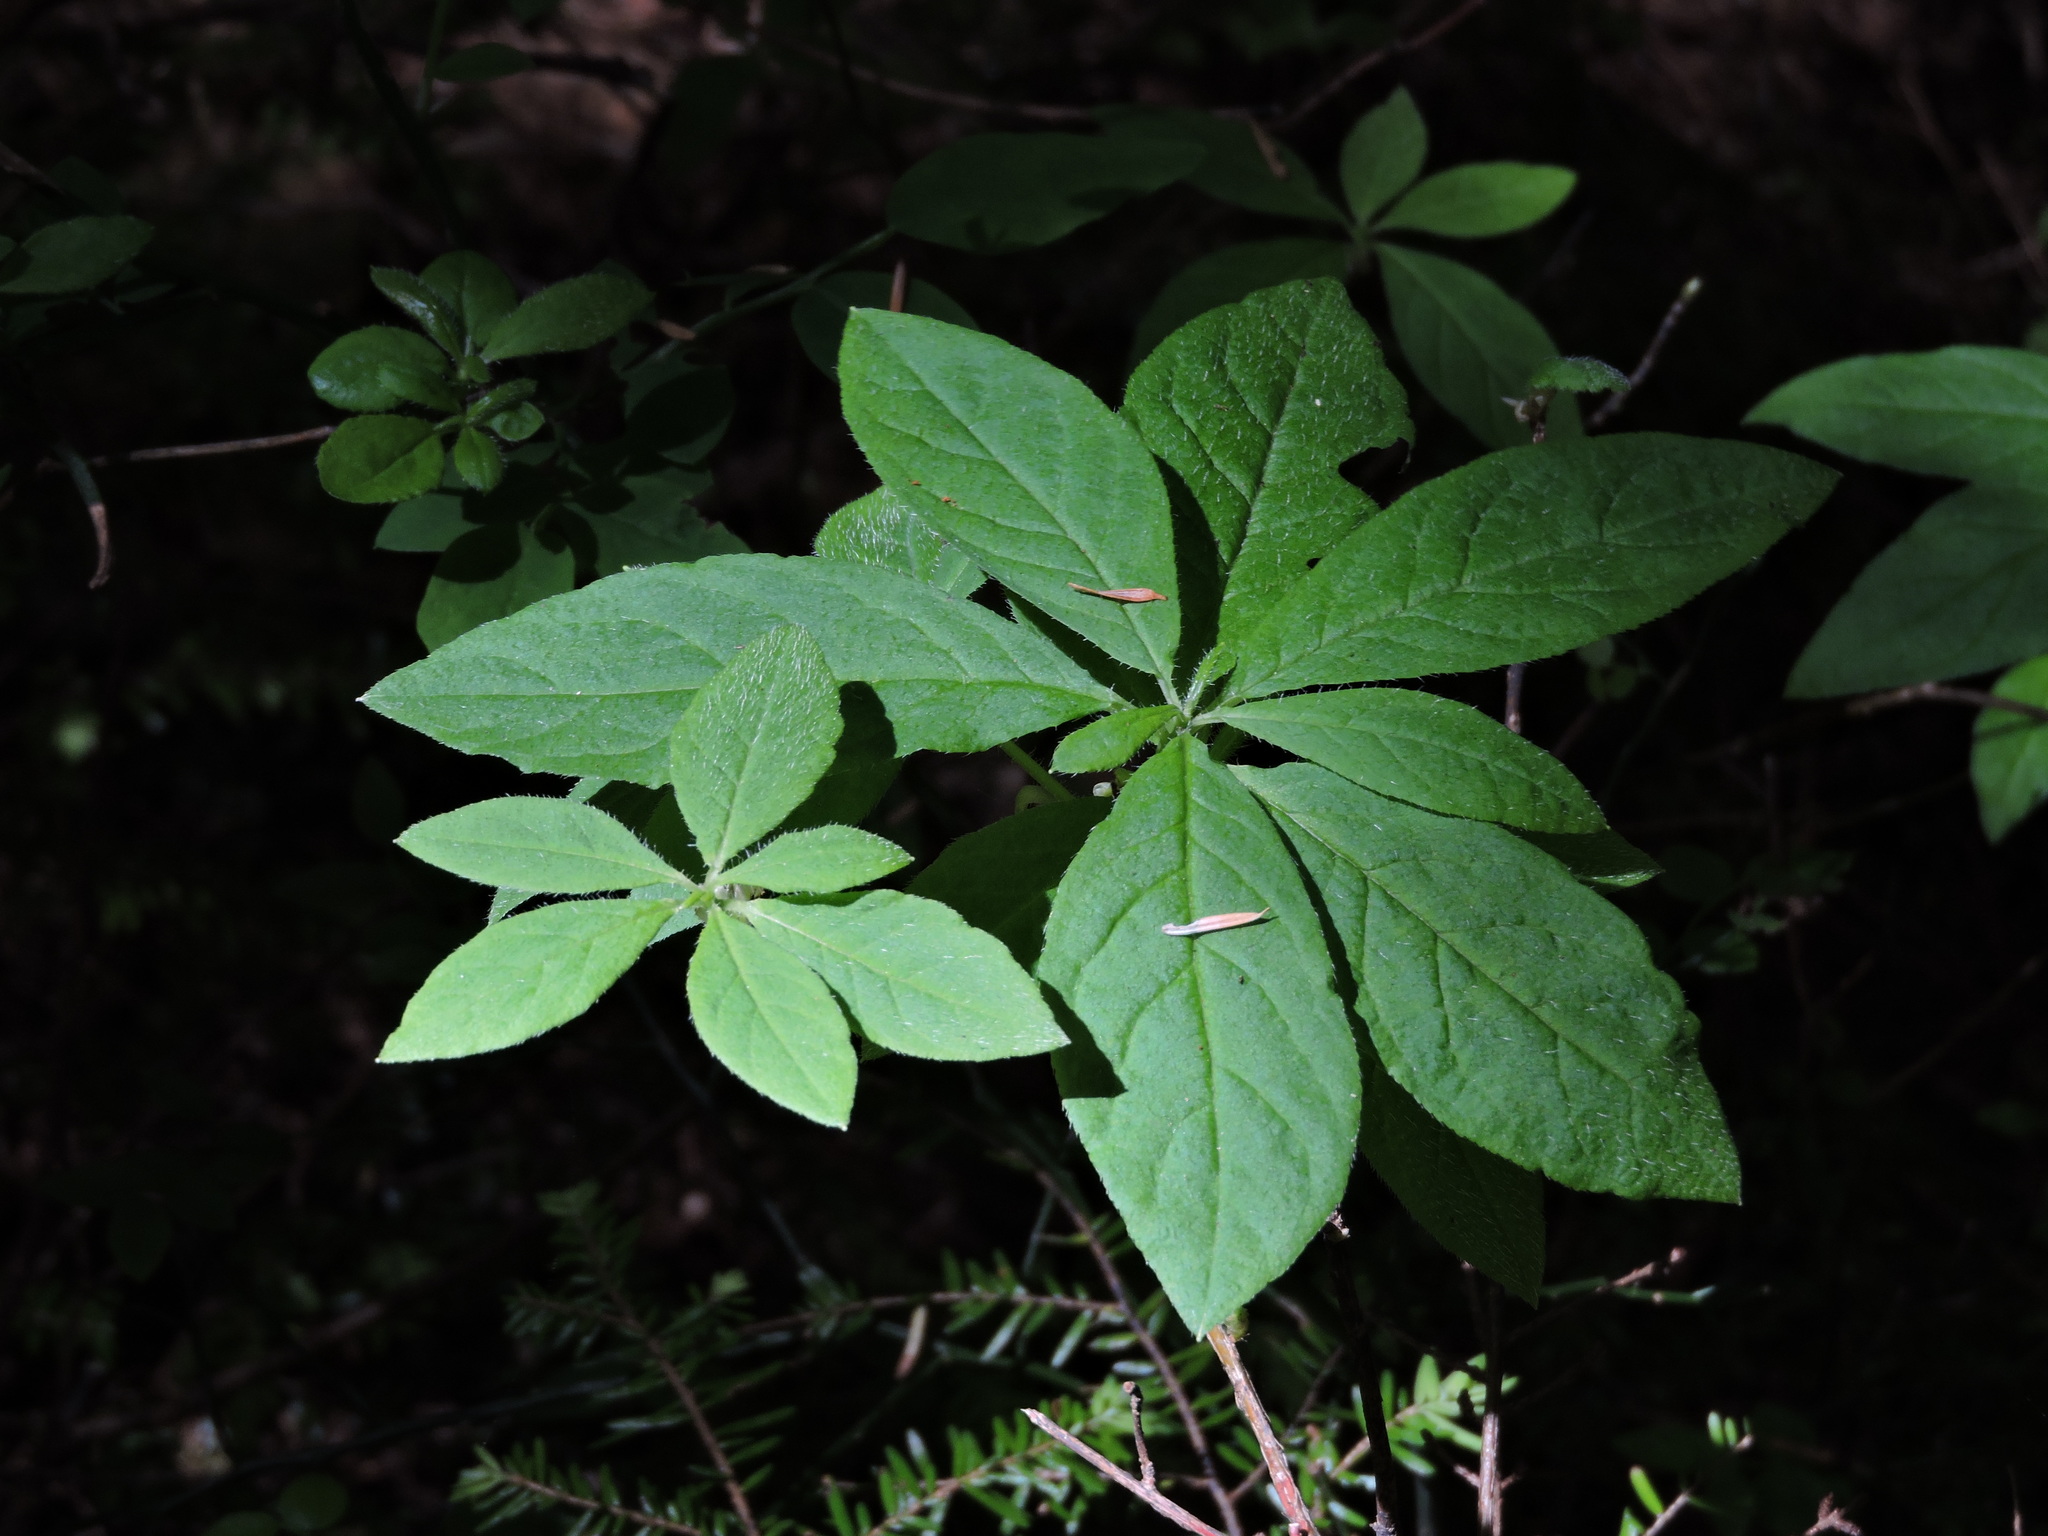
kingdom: Plantae
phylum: Tracheophyta
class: Magnoliopsida
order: Ericales
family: Ericaceae
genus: Rhododendron
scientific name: Rhododendron menziesii
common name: Pacific menziesia
